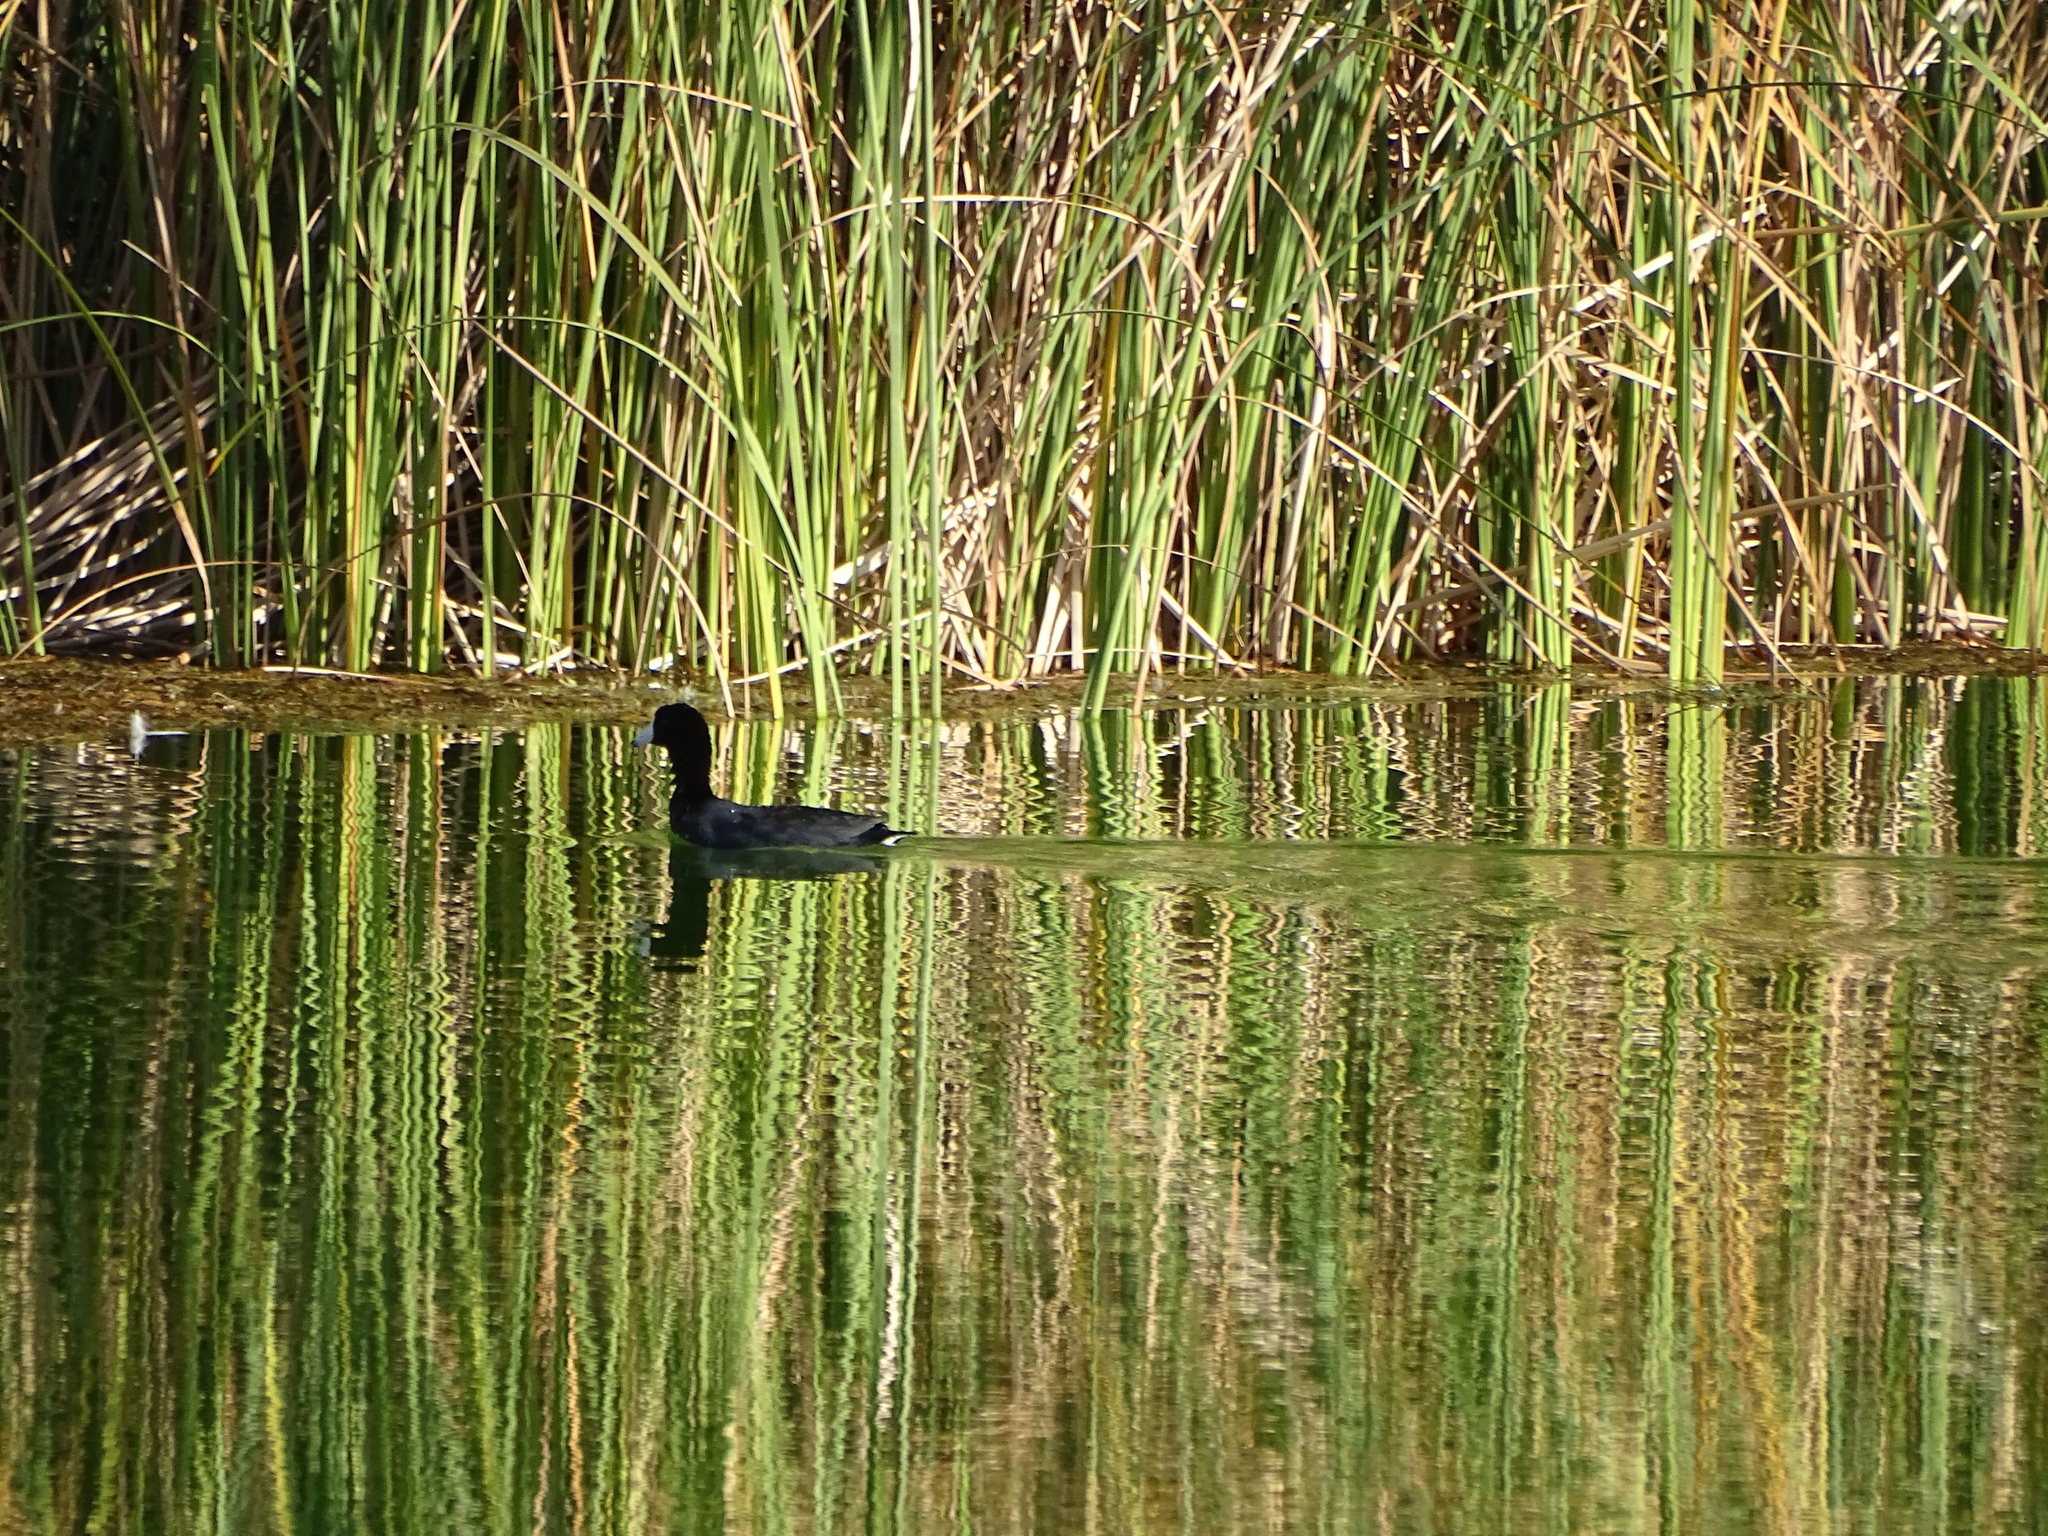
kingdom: Animalia
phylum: Chordata
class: Aves
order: Gruiformes
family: Rallidae
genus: Fulica
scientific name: Fulica americana
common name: American coot
